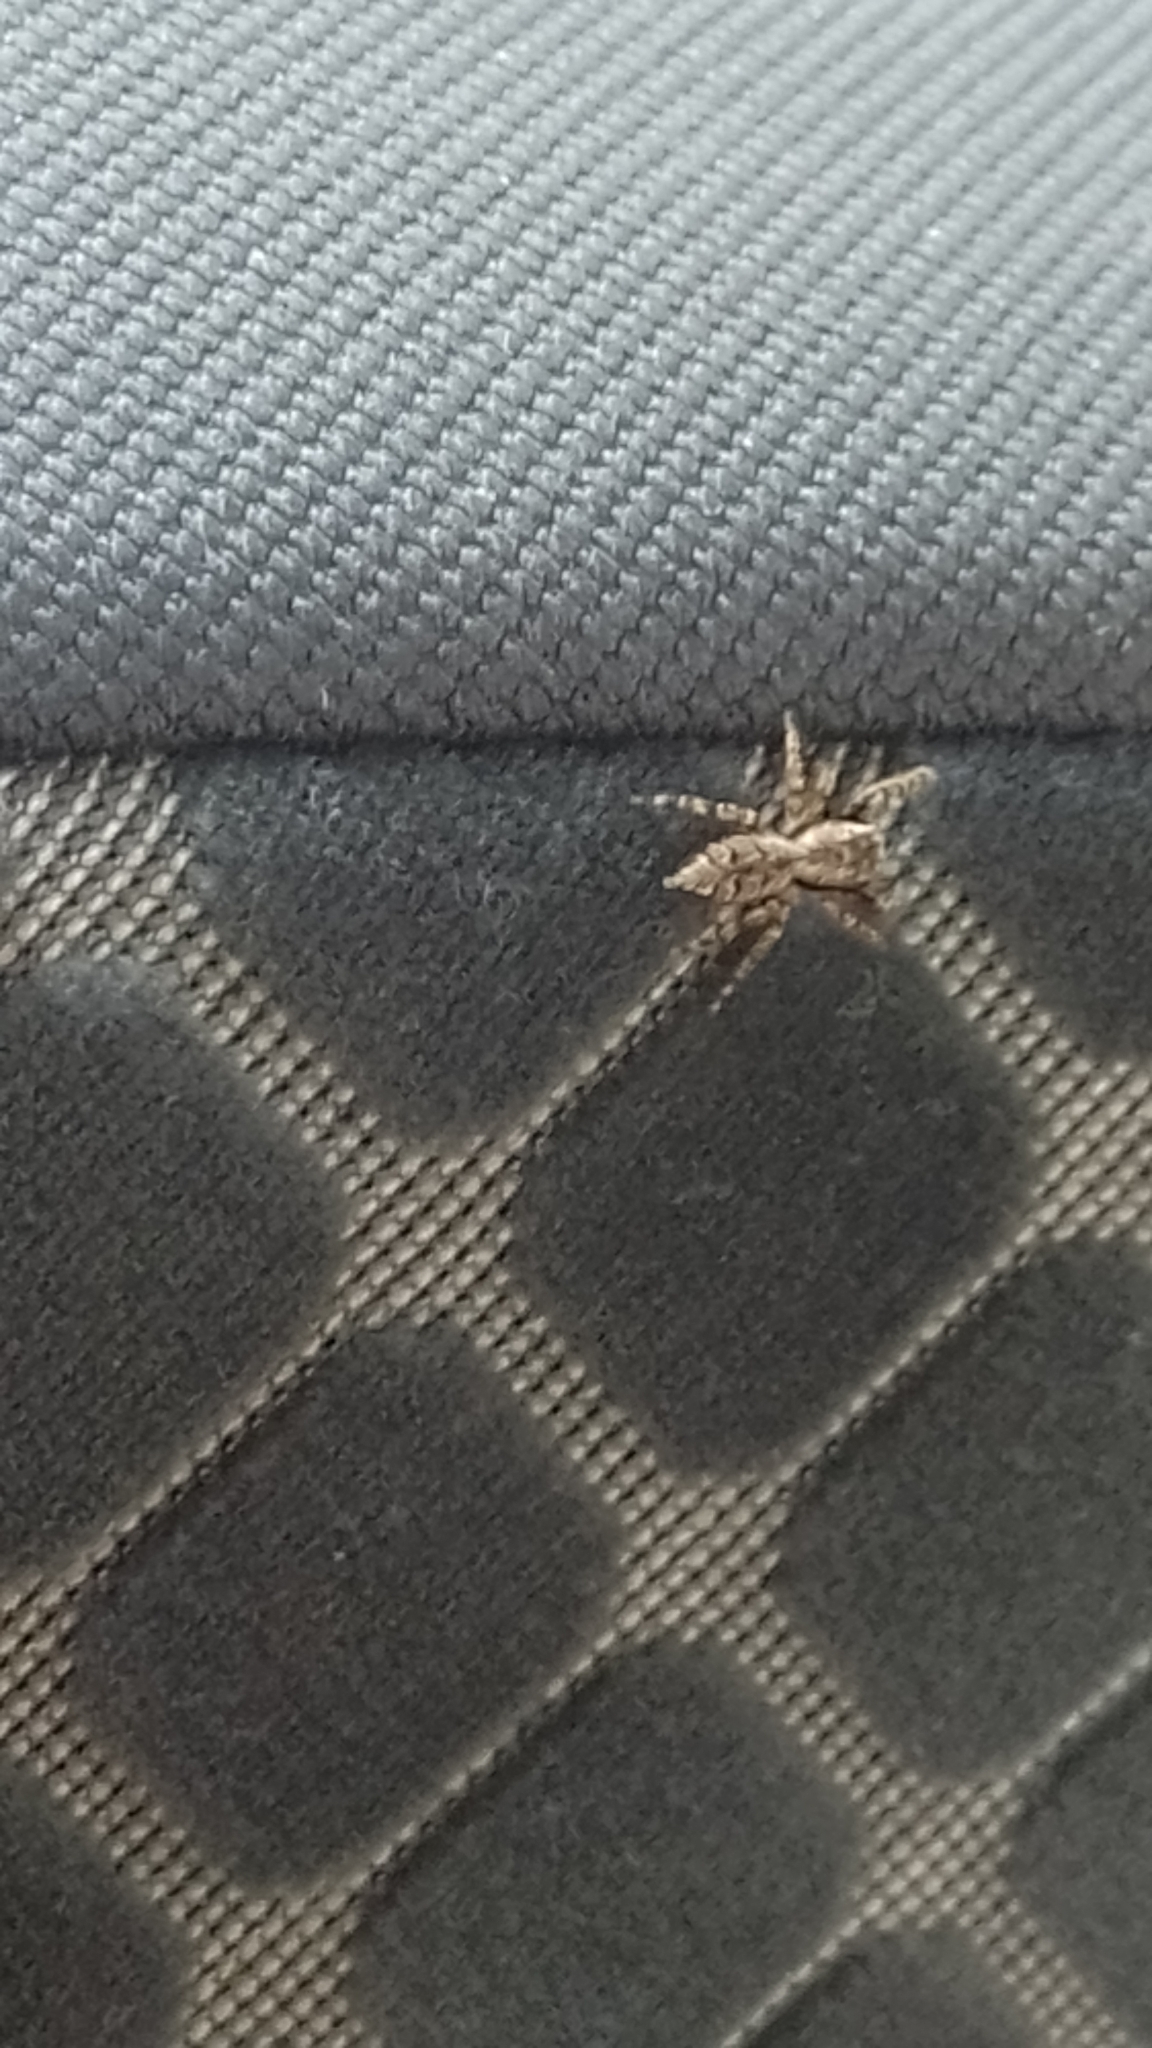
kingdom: Animalia
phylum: Arthropoda
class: Arachnida
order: Araneae
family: Salticidae
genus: Marpissa
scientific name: Marpissa muscosa
